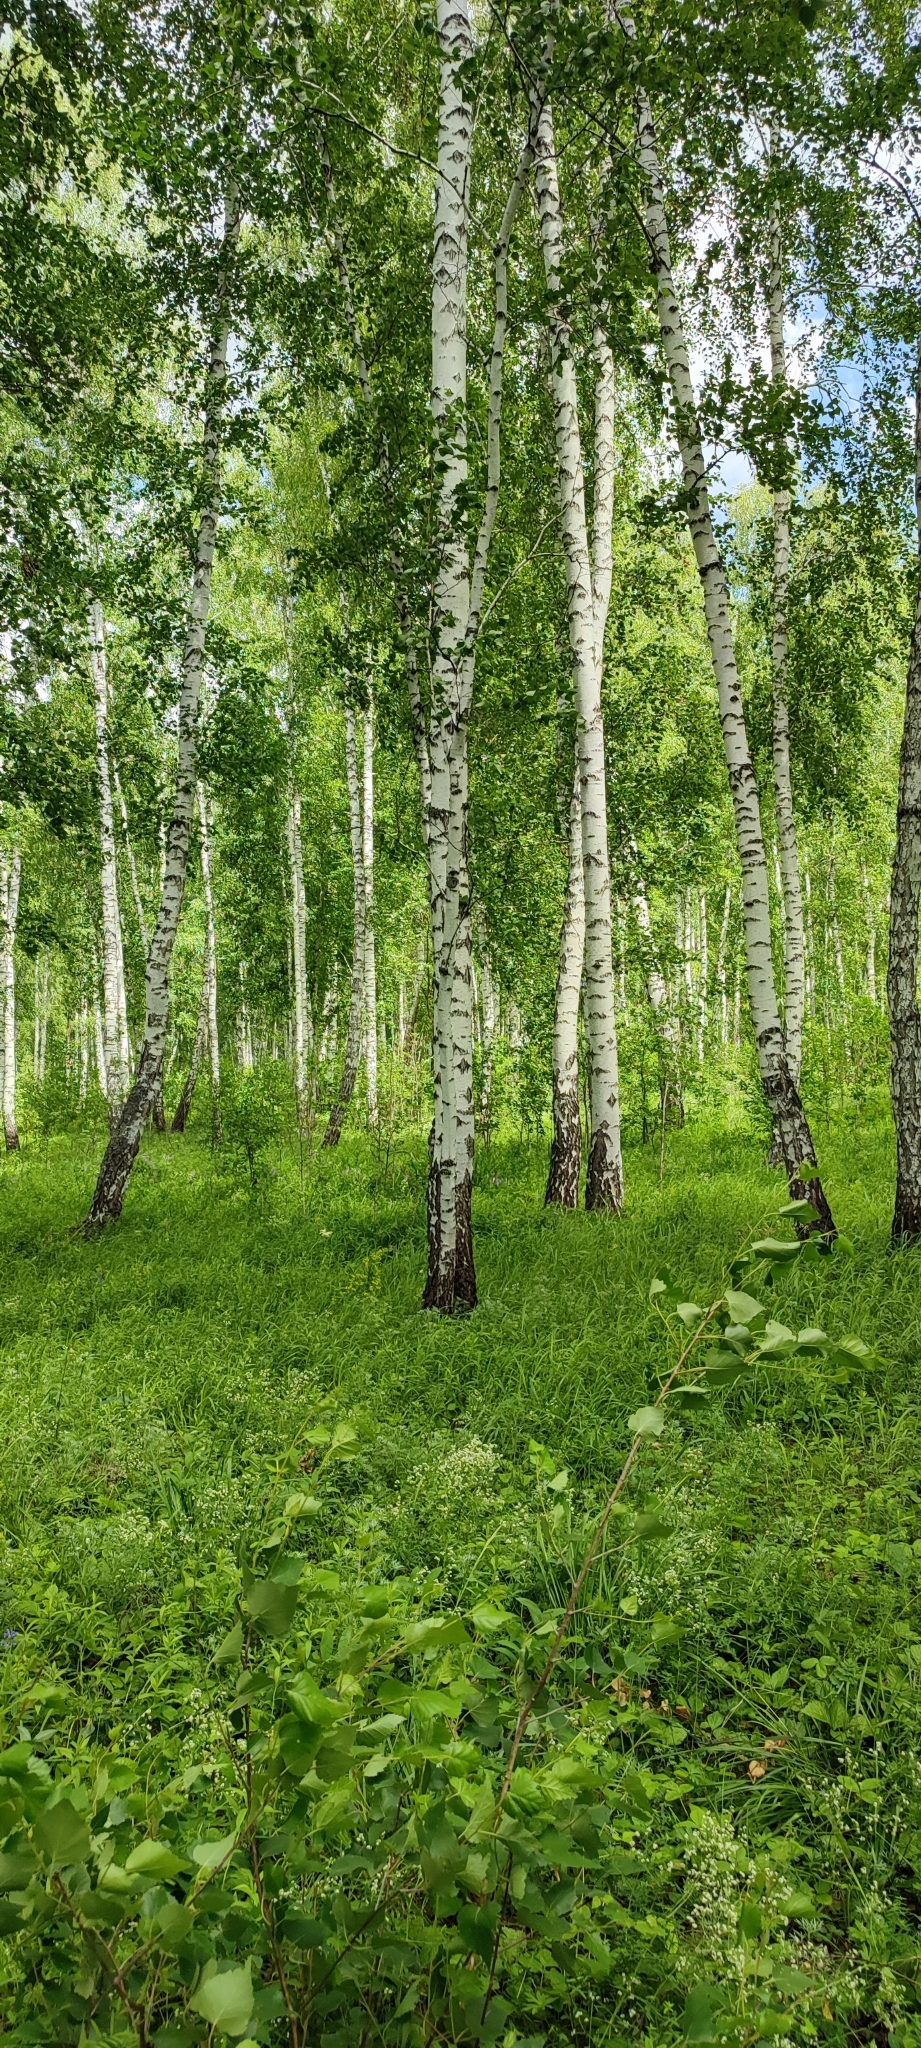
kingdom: Plantae
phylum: Tracheophyta
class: Magnoliopsida
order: Fagales
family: Betulaceae
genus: Betula
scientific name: Betula pendula
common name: Silver birch
